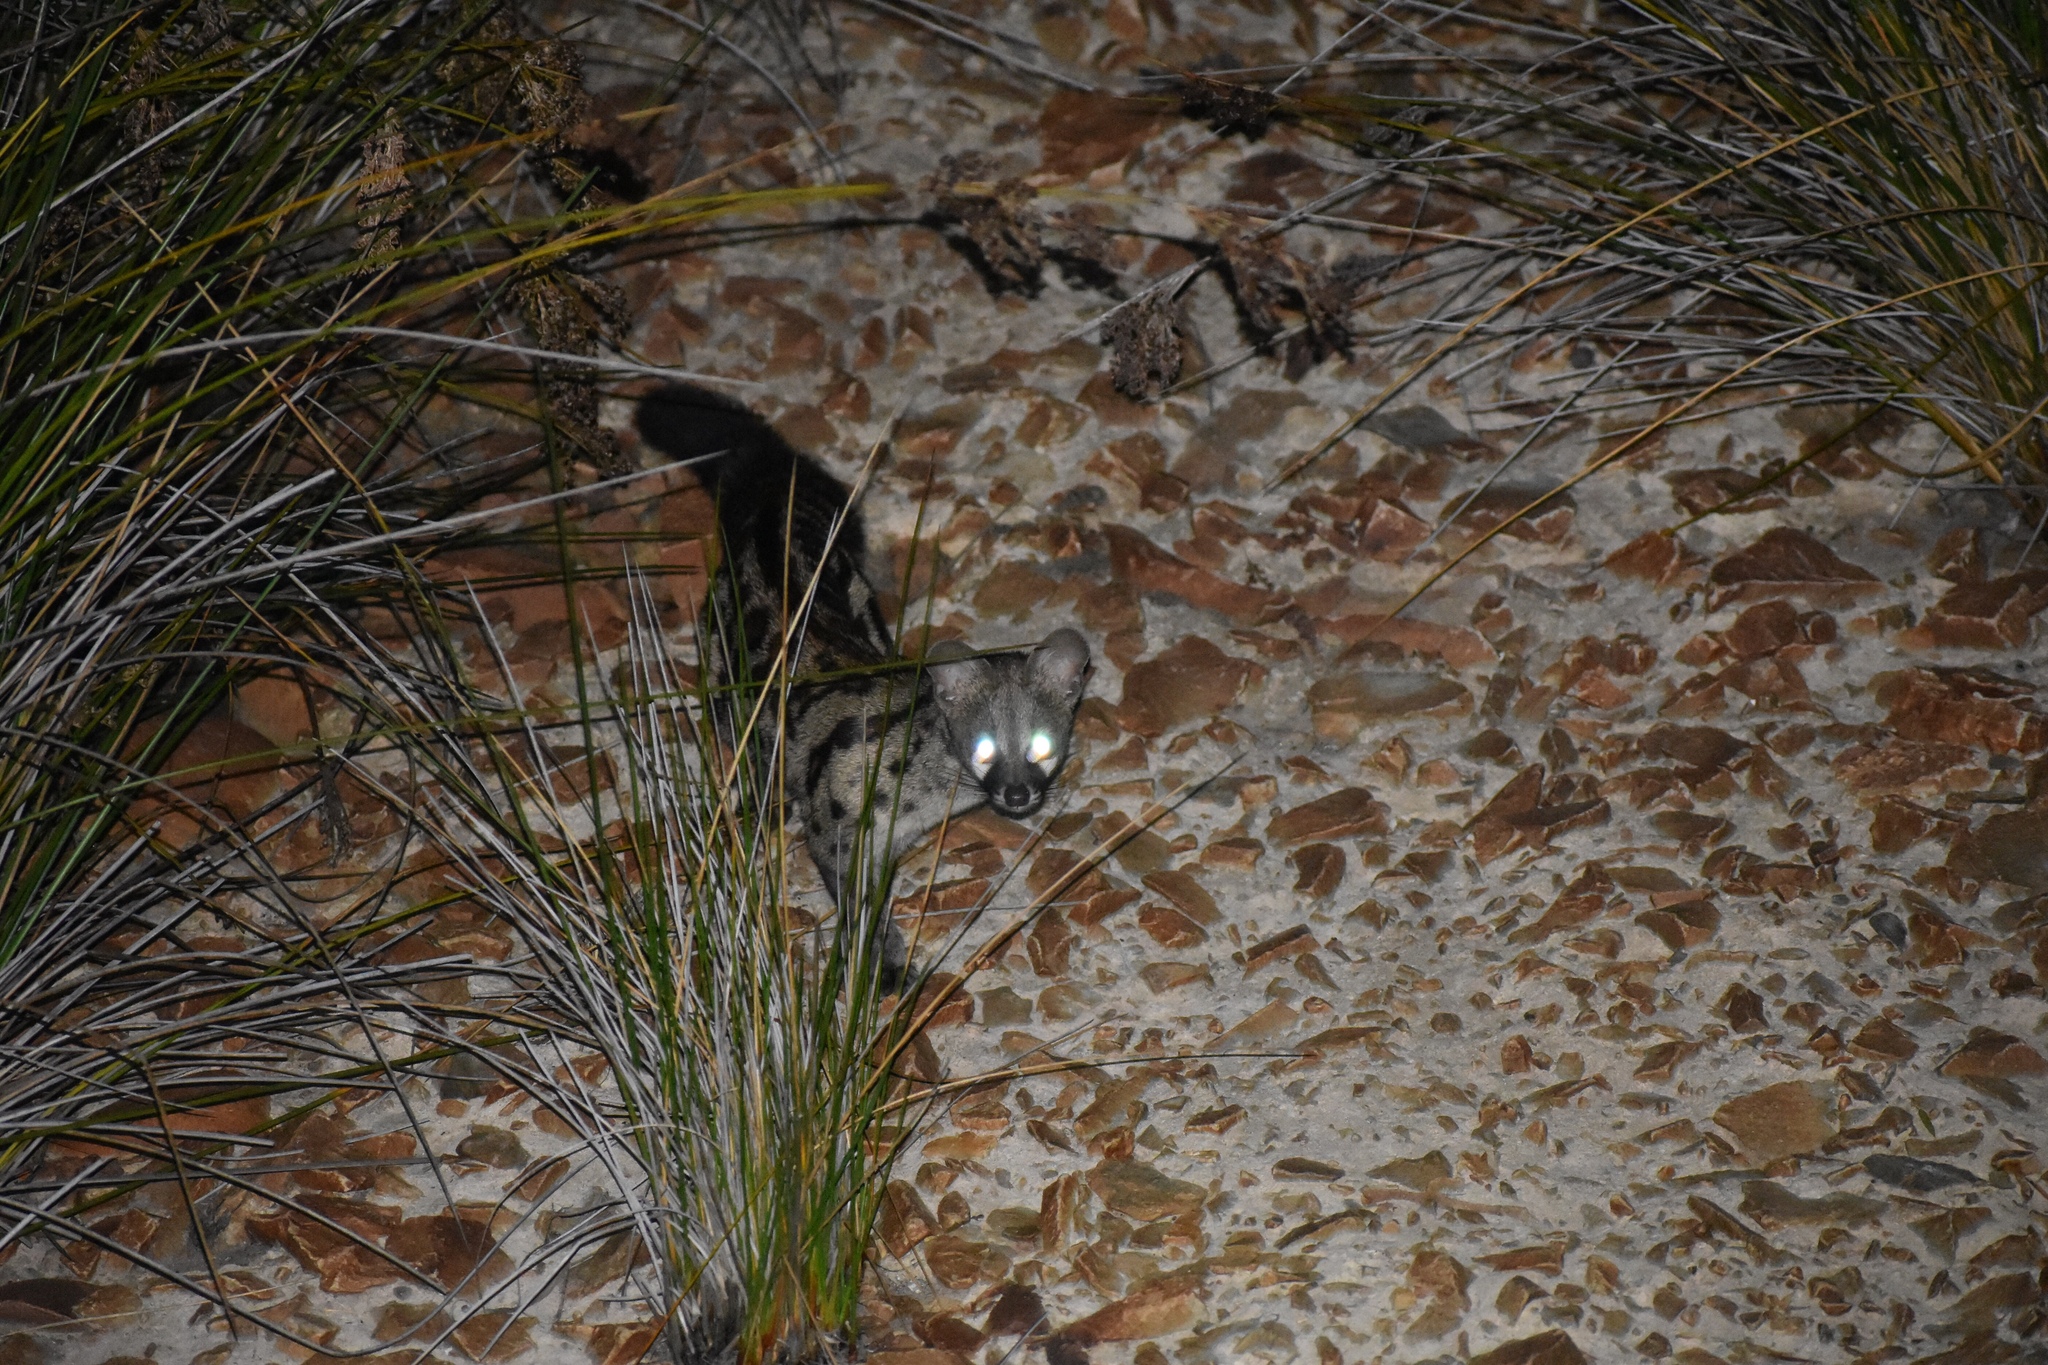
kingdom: Animalia
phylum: Chordata
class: Mammalia
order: Carnivora
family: Viverridae
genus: Genetta
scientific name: Genetta tigrina
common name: Cape genet
